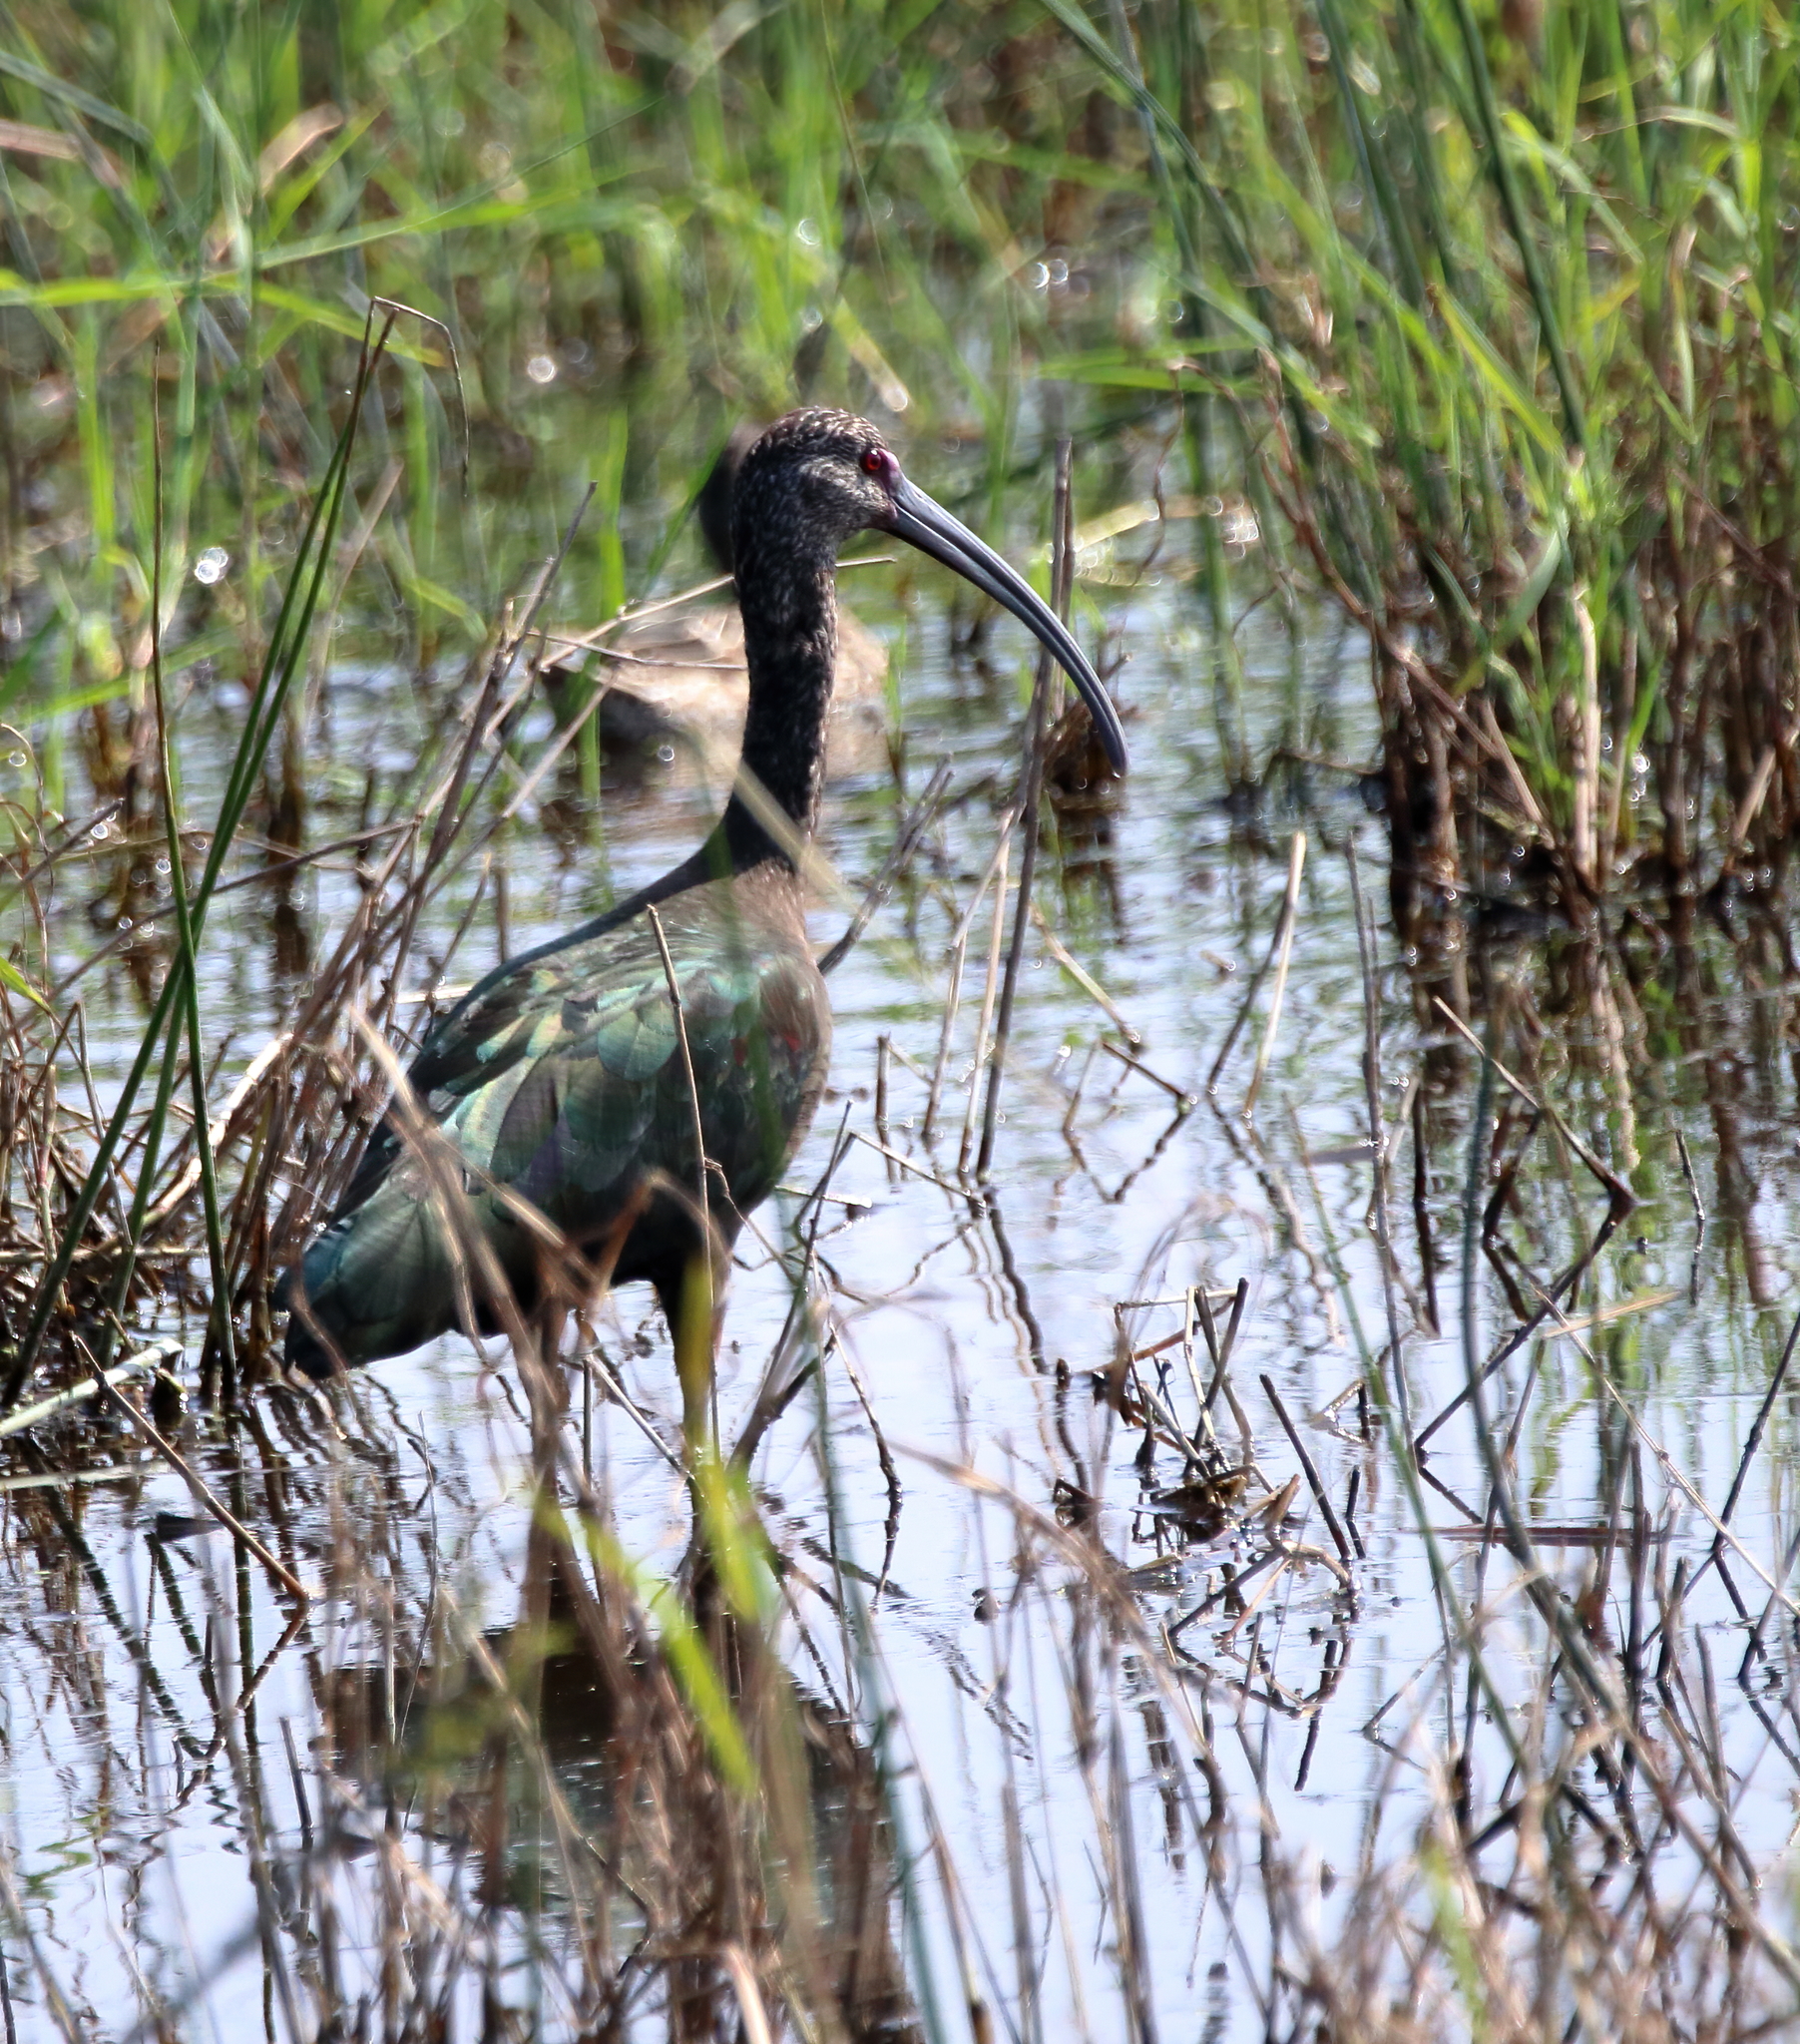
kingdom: Animalia
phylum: Chordata
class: Aves
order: Pelecaniformes
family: Threskiornithidae
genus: Plegadis
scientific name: Plegadis chihi
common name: White-faced ibis
